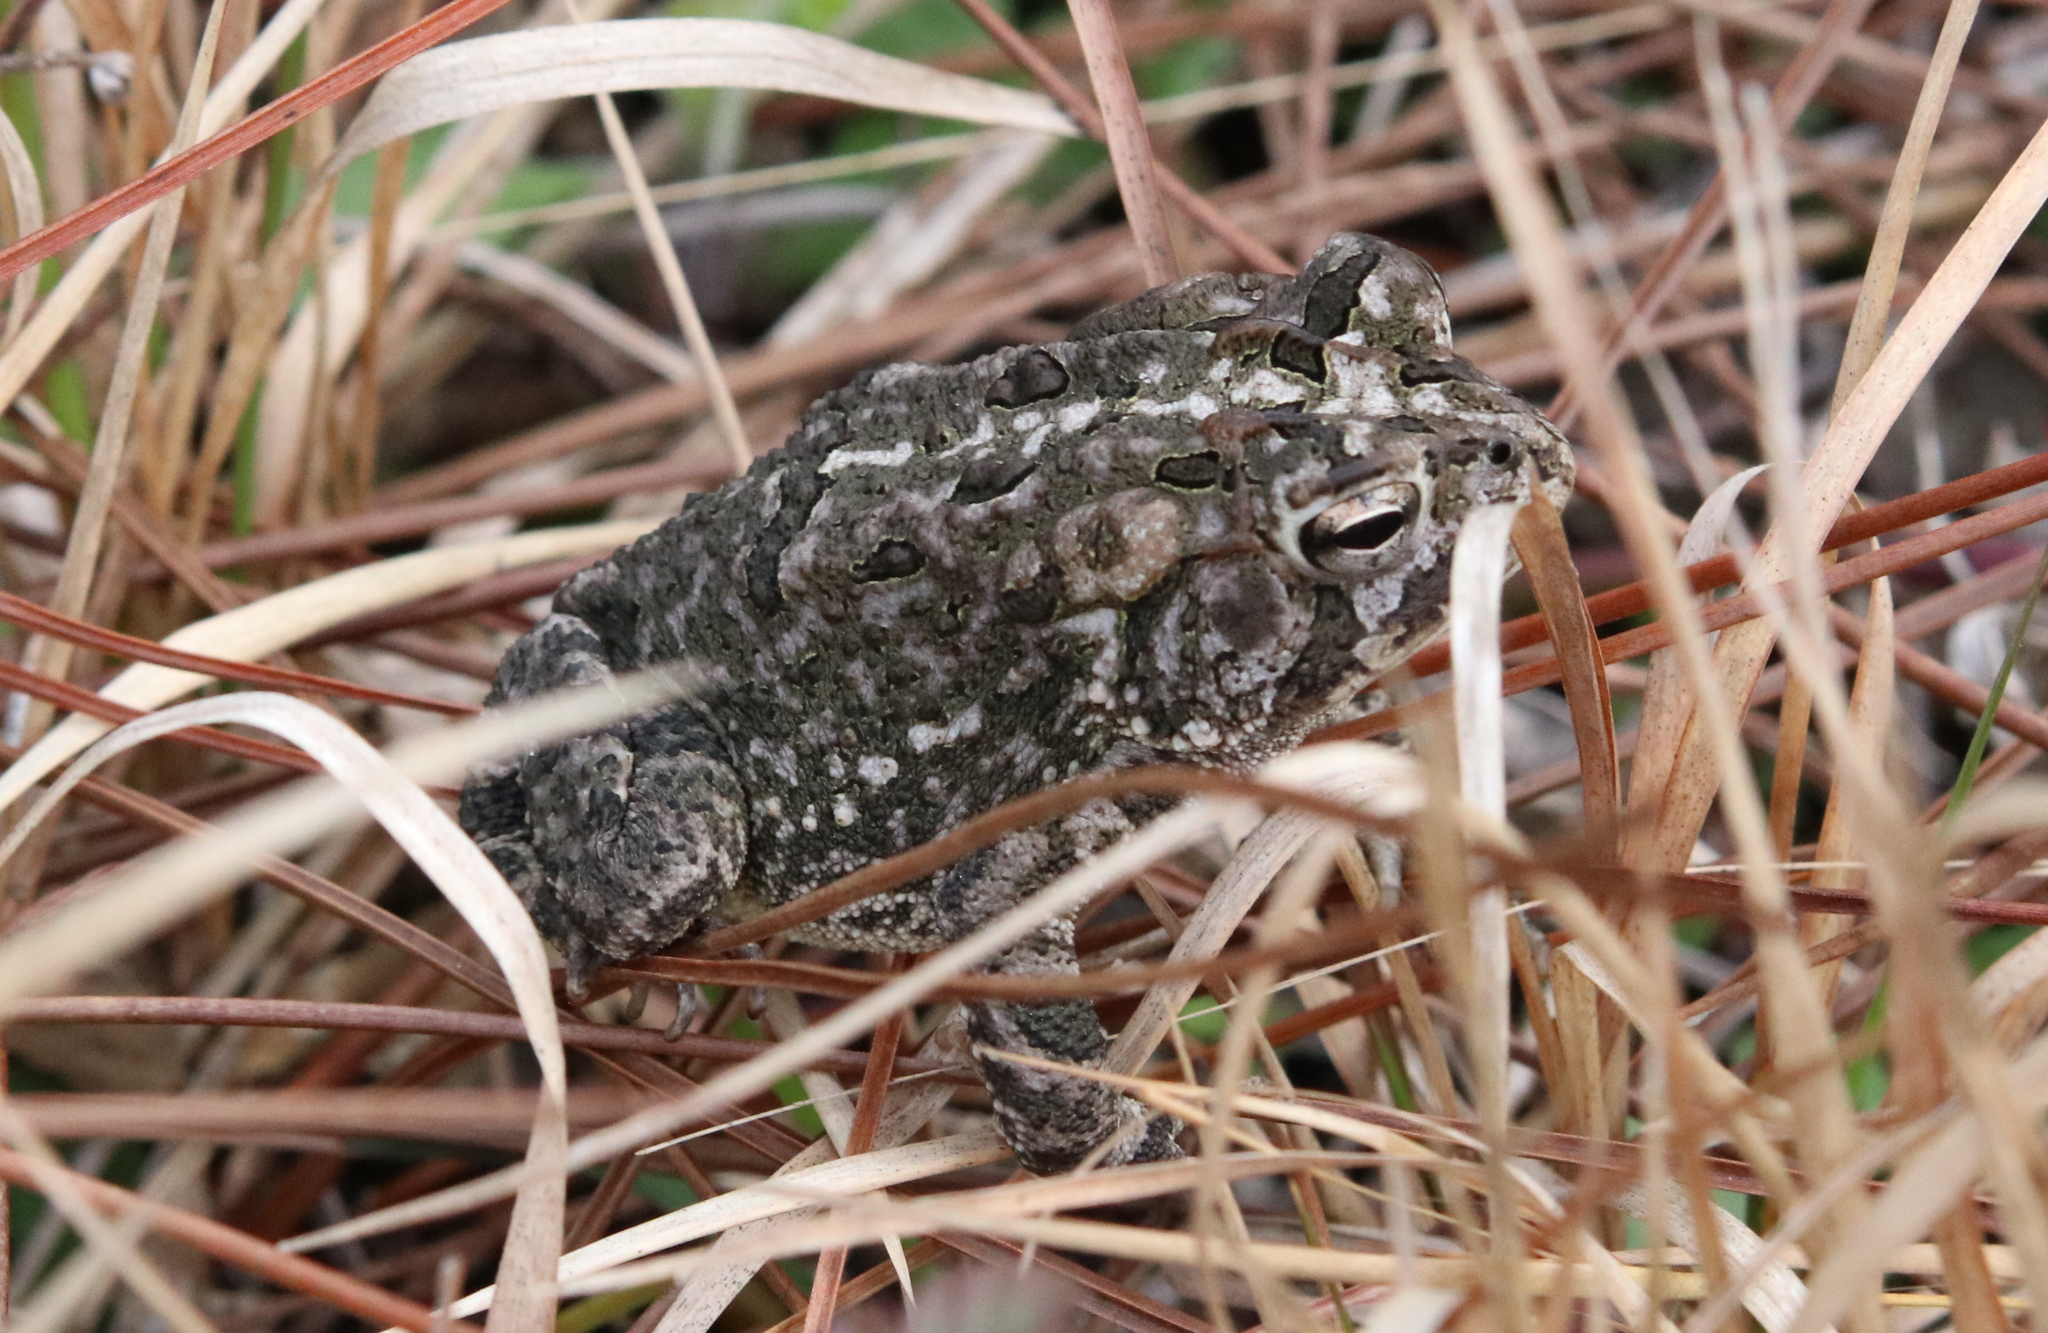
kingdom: Animalia
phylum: Chordata
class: Amphibia
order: Anura
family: Bufonidae
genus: Anaxyrus
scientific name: Anaxyrus terrestris
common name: Southern toad
